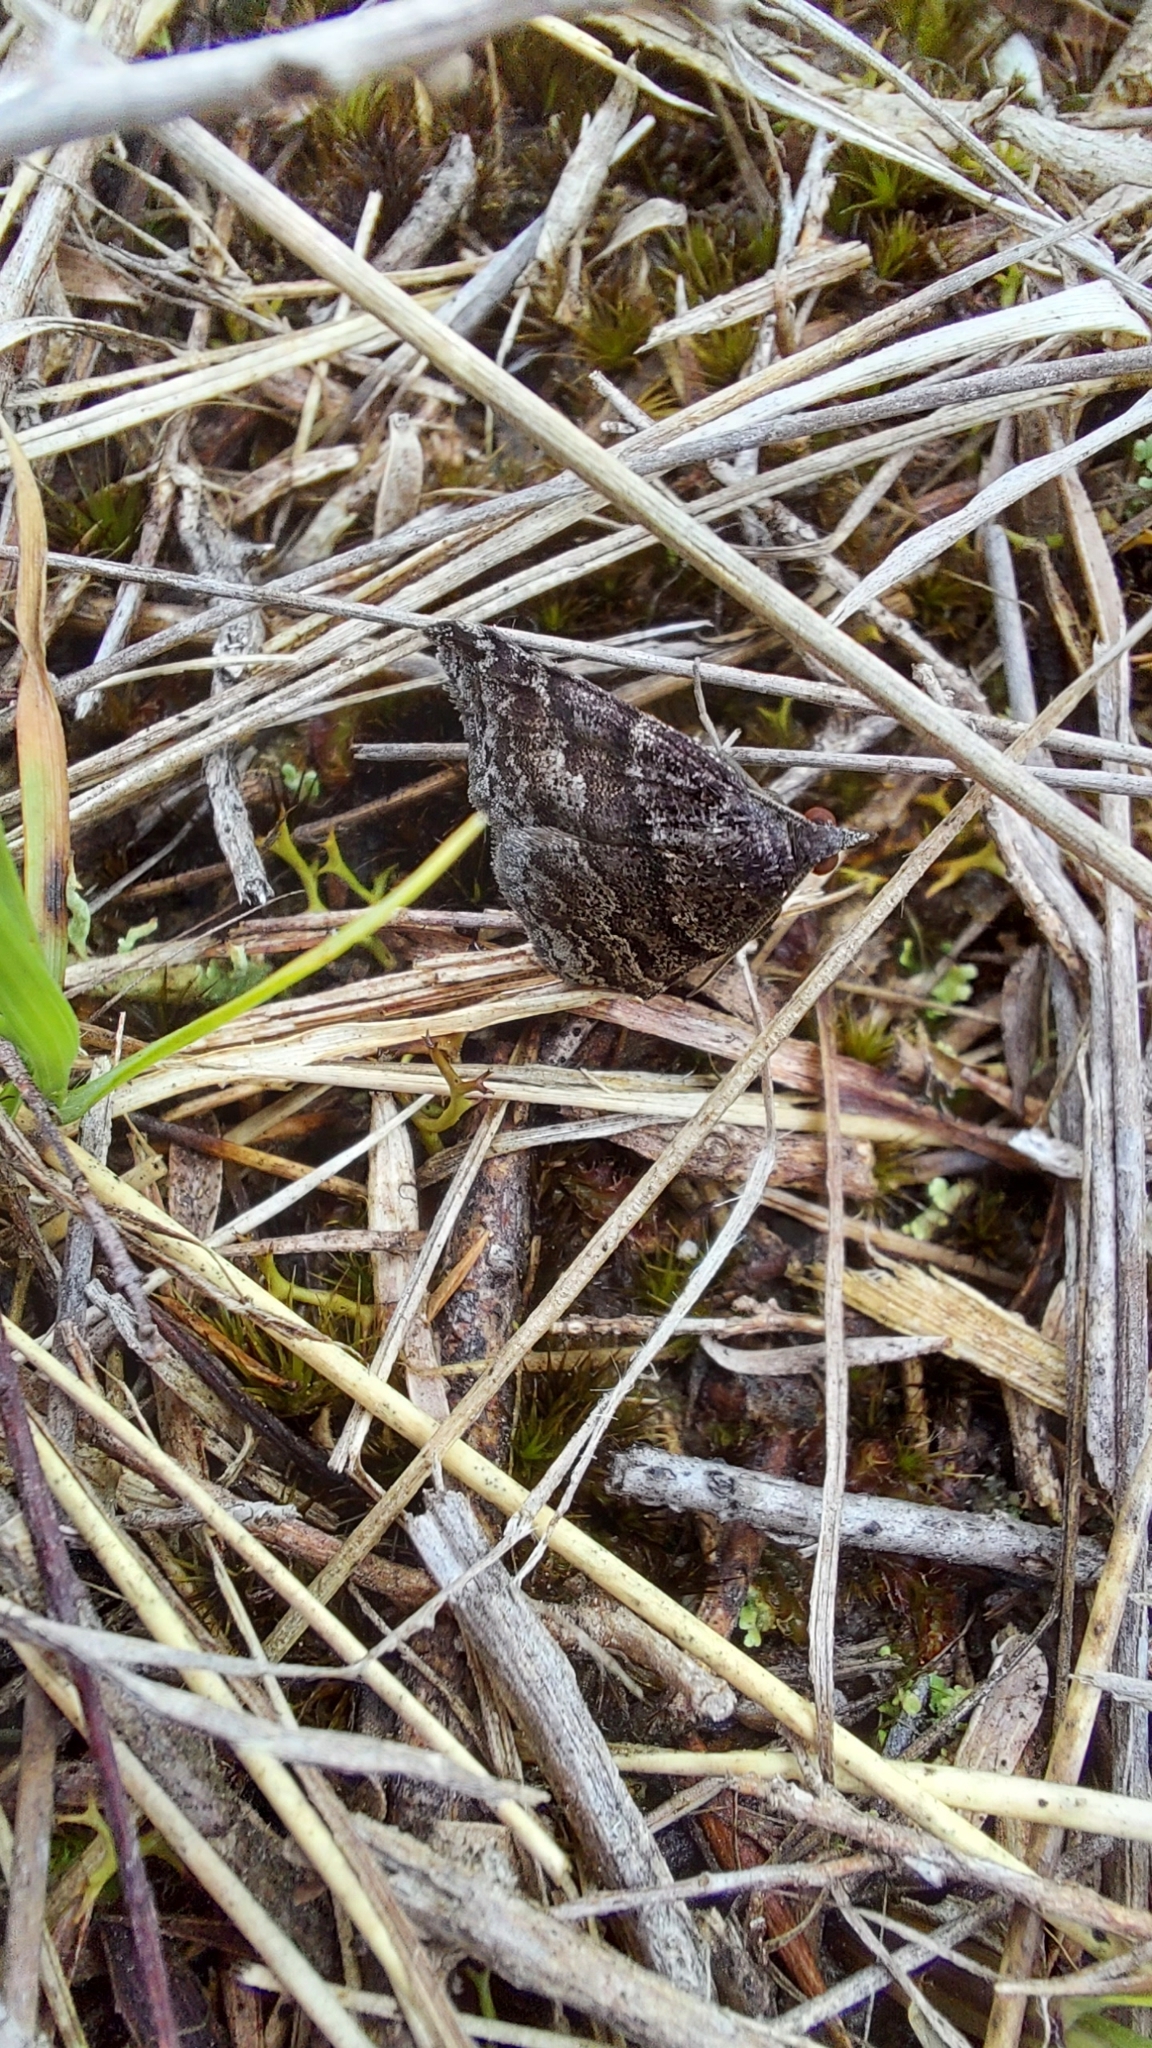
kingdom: Animalia
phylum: Arthropoda
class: Insecta
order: Lepidoptera
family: Geometridae
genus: Dichromodes
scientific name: Dichromodes ainaria
